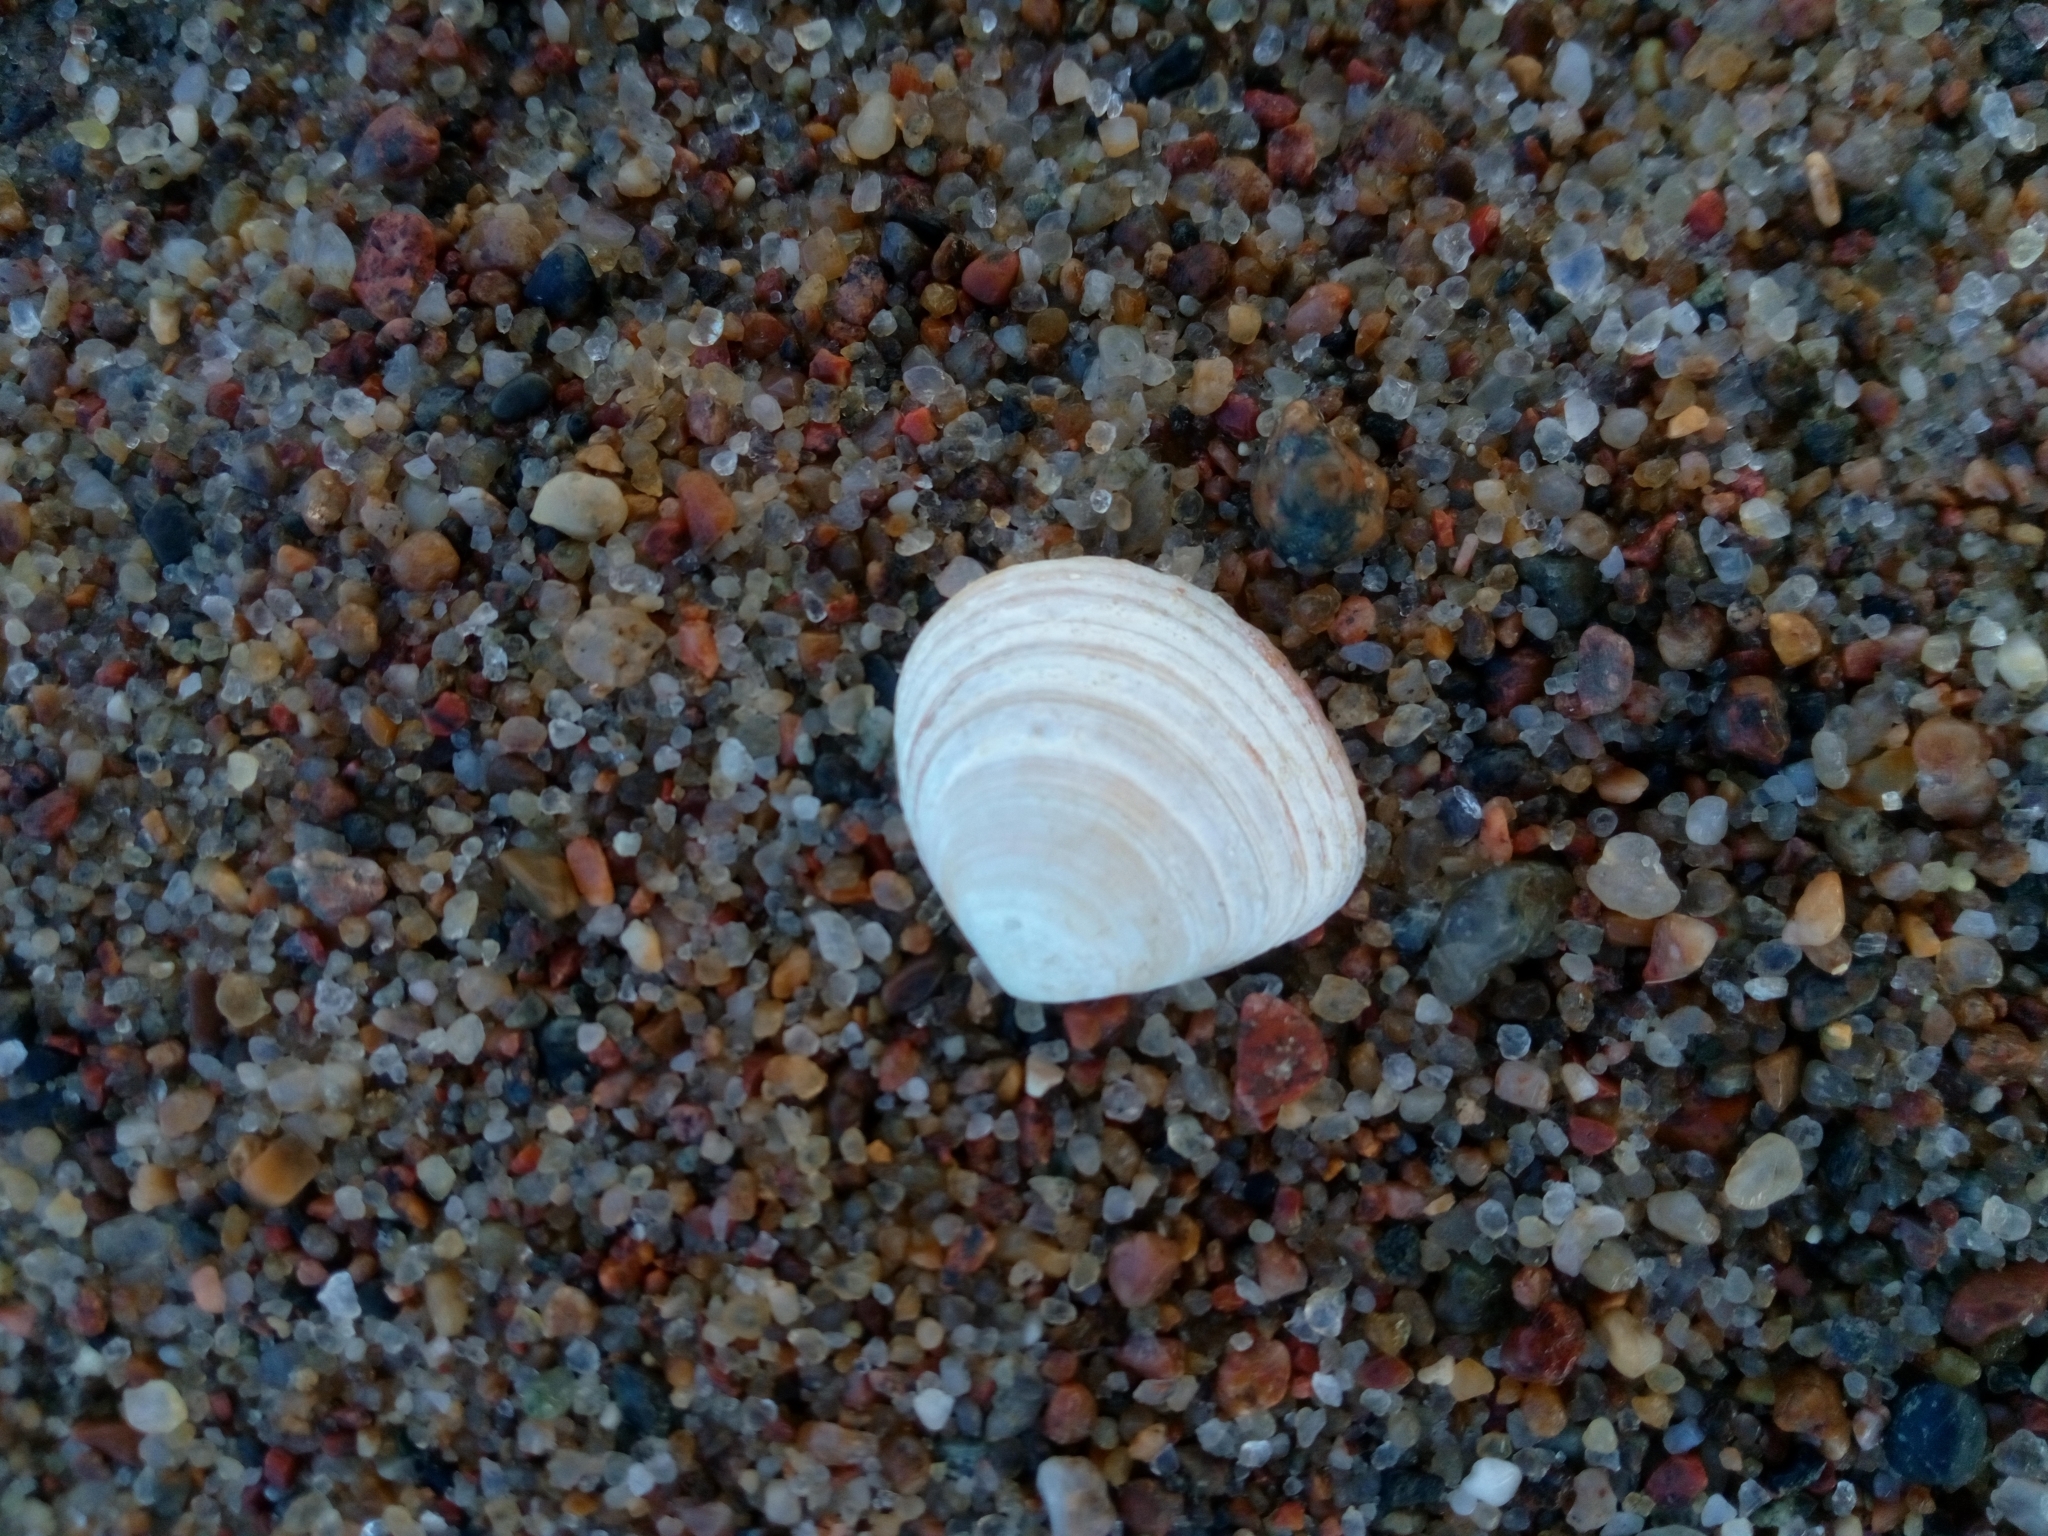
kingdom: Animalia
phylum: Mollusca
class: Bivalvia
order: Cardiida
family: Tellinidae
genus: Macoma
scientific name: Macoma balthica
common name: Baltic tellin
